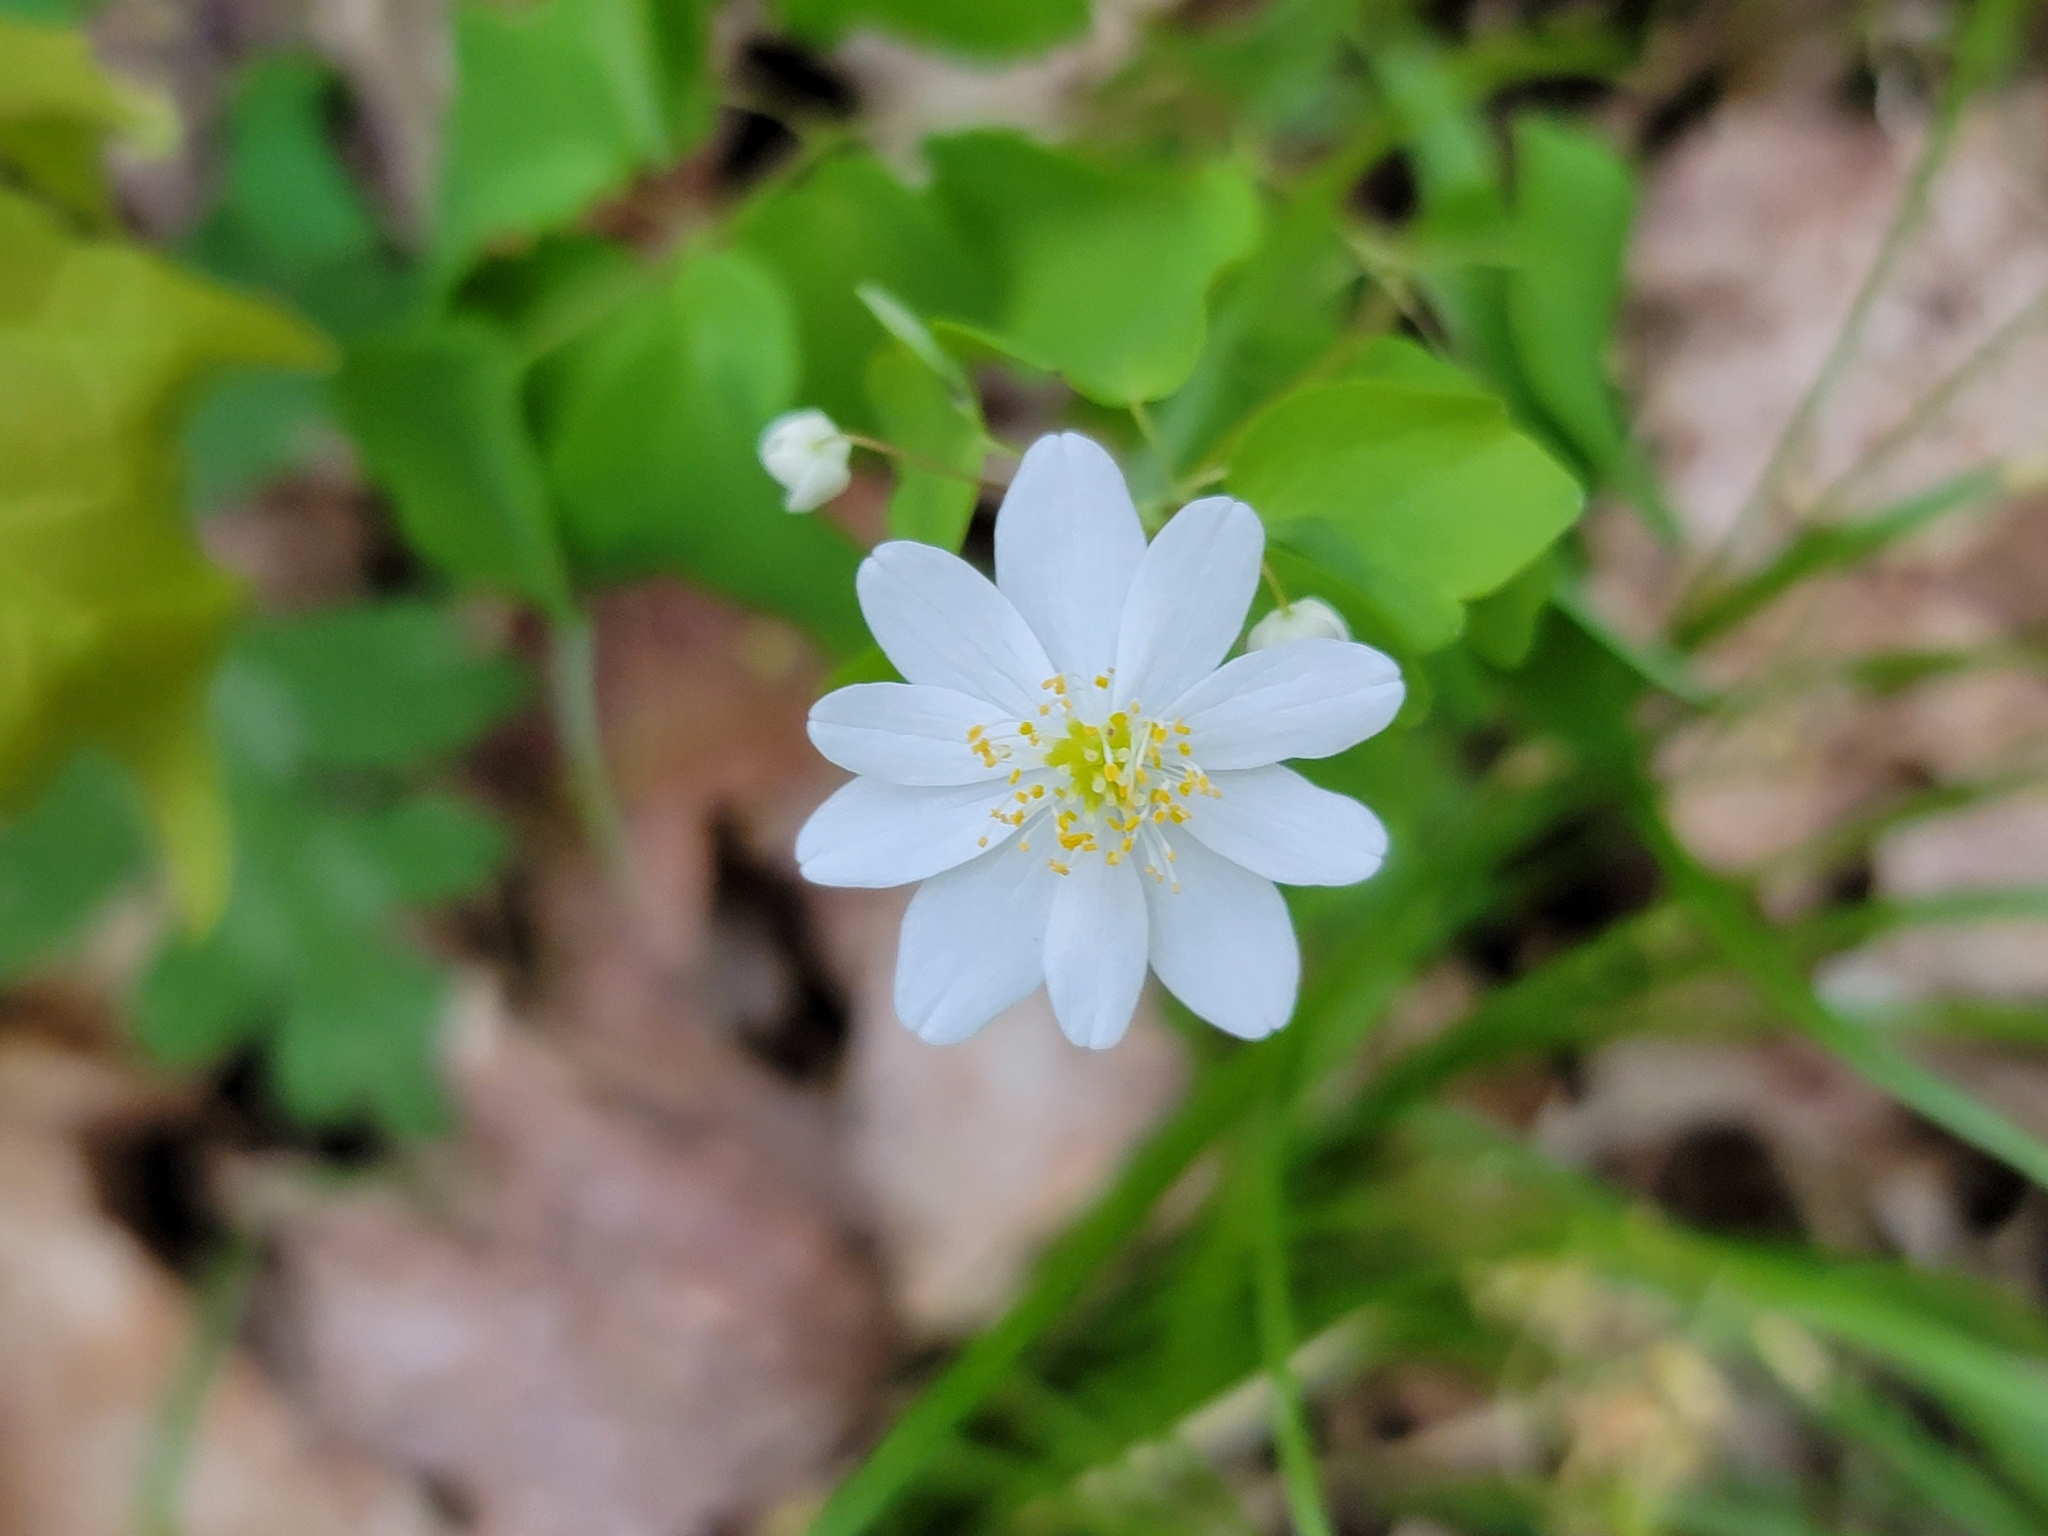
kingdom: Plantae
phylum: Tracheophyta
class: Magnoliopsida
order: Ranunculales
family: Ranunculaceae
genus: Thalictrum
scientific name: Thalictrum thalictroides
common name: Rue-anemone
